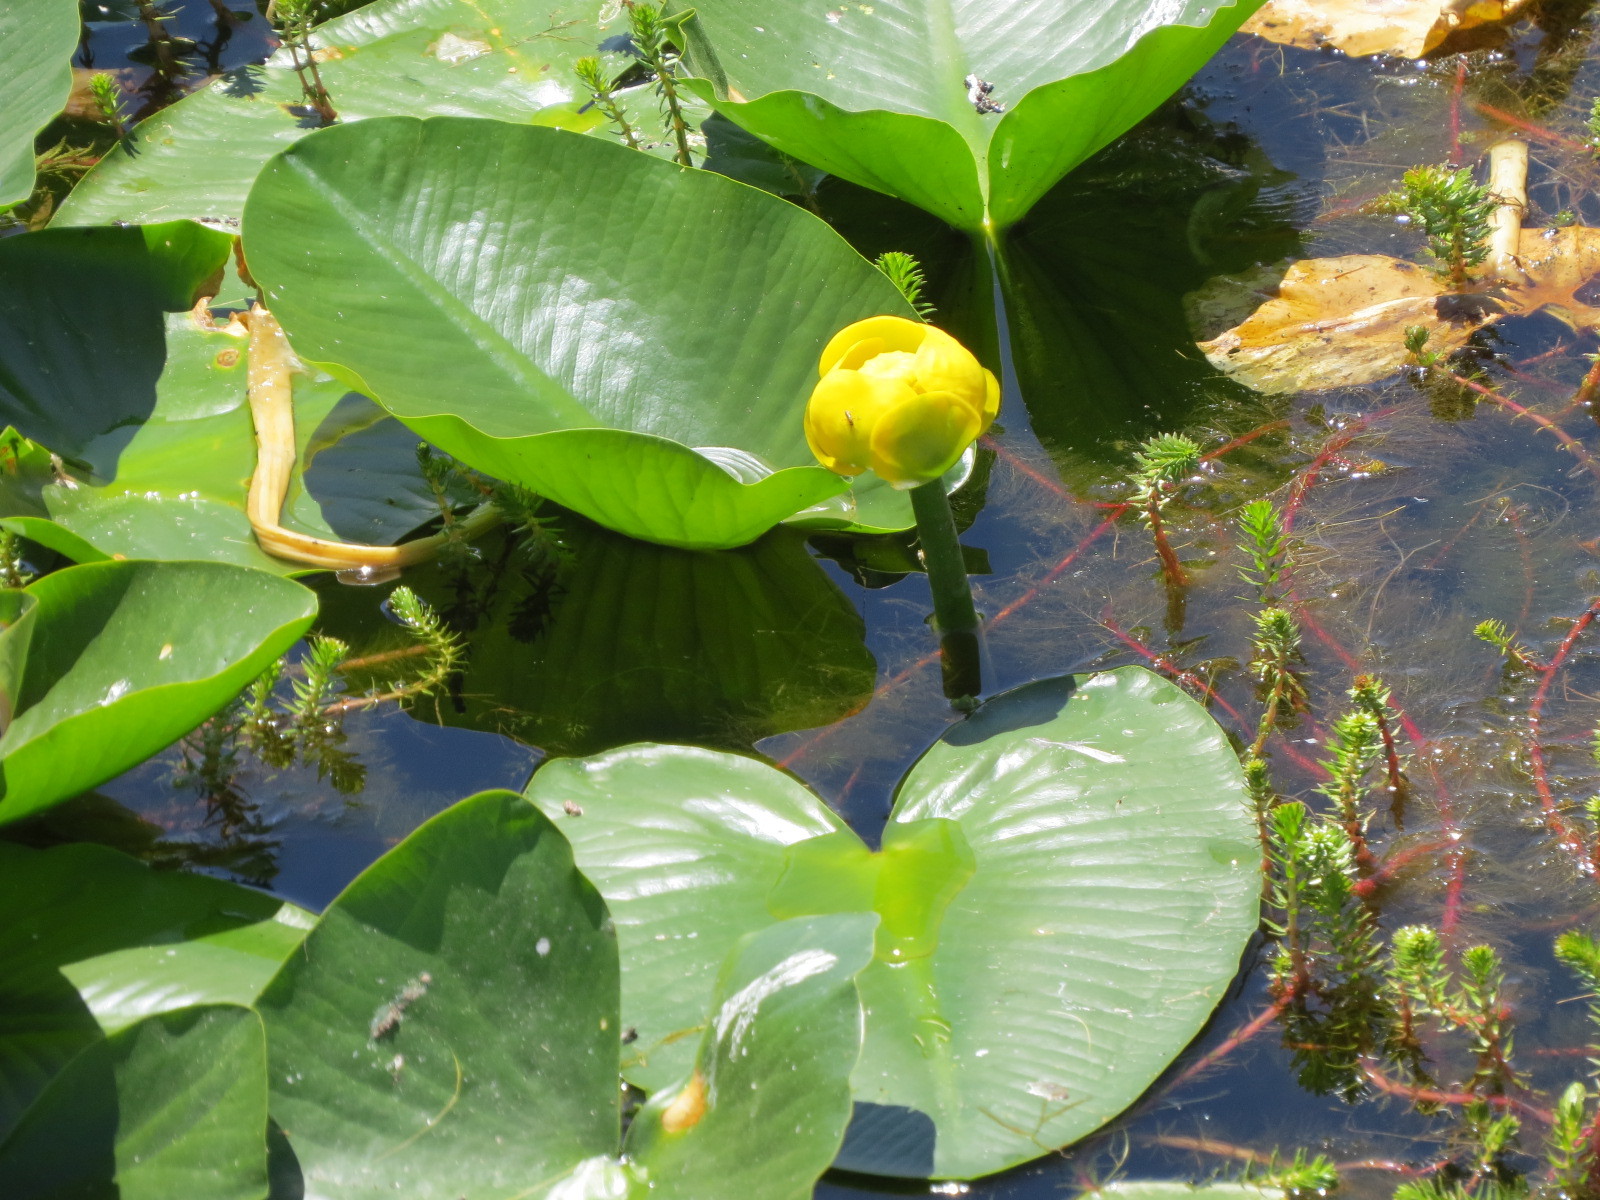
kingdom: Plantae
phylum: Tracheophyta
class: Magnoliopsida
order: Nymphaeales
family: Nymphaeaceae
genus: Nuphar
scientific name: Nuphar polysepala
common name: Rocky mountain cow-lily
